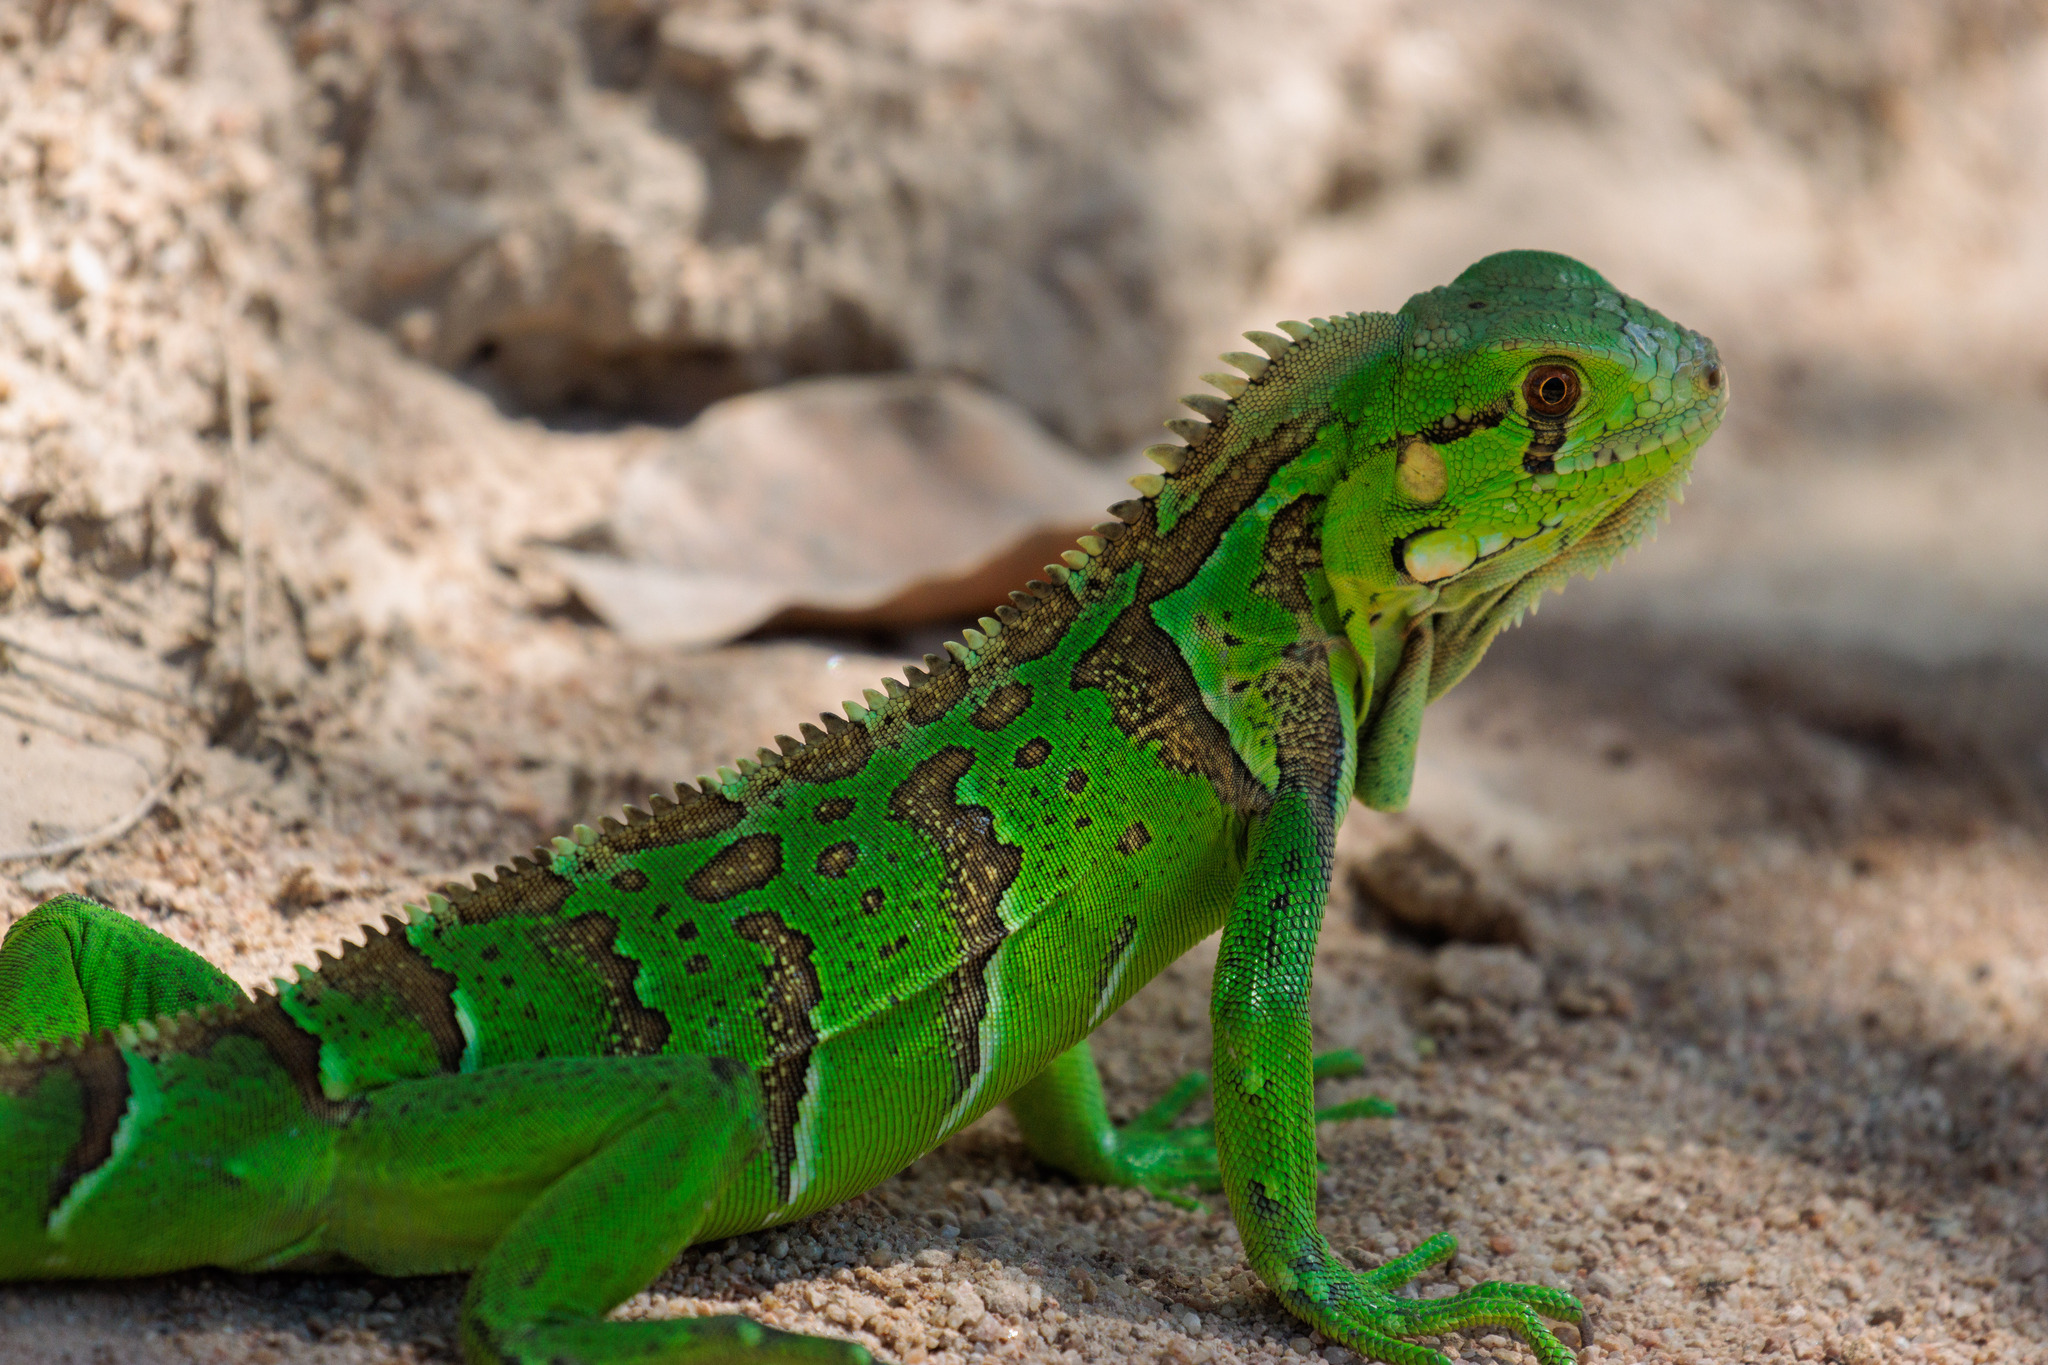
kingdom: Animalia
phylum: Chordata
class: Squamata
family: Iguanidae
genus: Iguana
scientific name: Iguana iguana
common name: Green iguana
